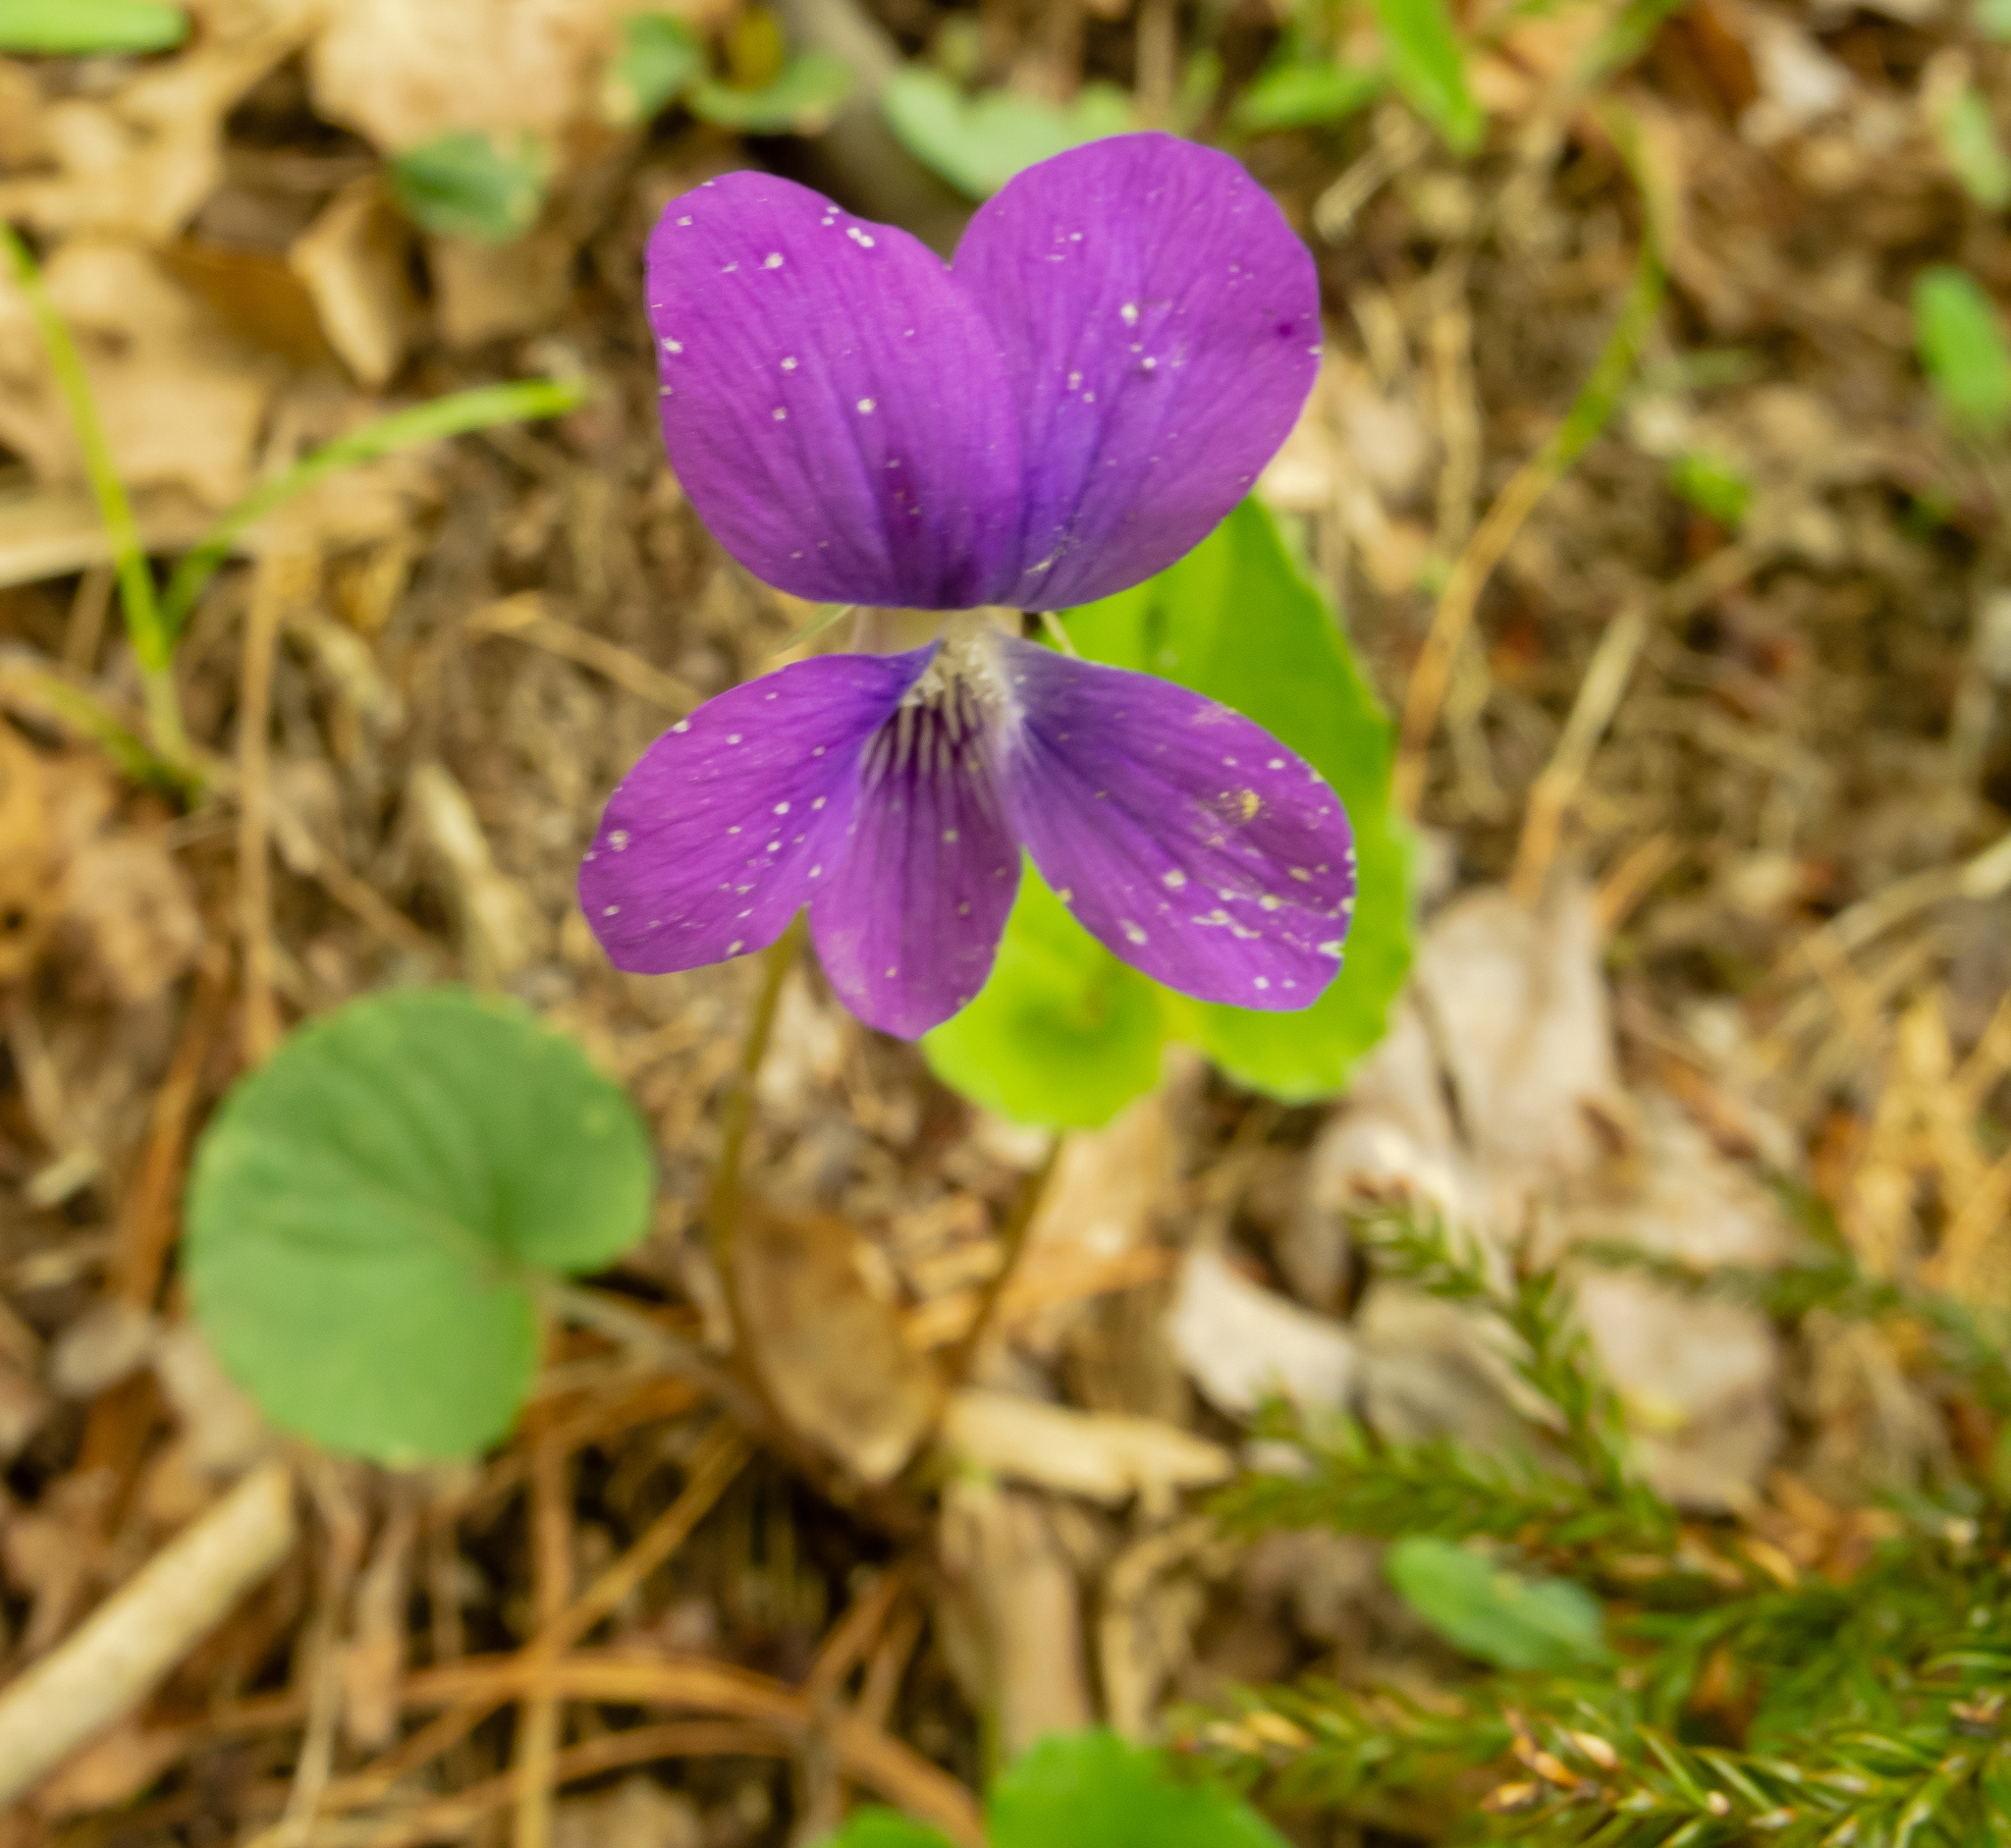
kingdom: Plantae
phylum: Tracheophyta
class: Magnoliopsida
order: Malpighiales
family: Violaceae
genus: Viola
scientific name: Viola cucullata
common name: Marsh blue violet
